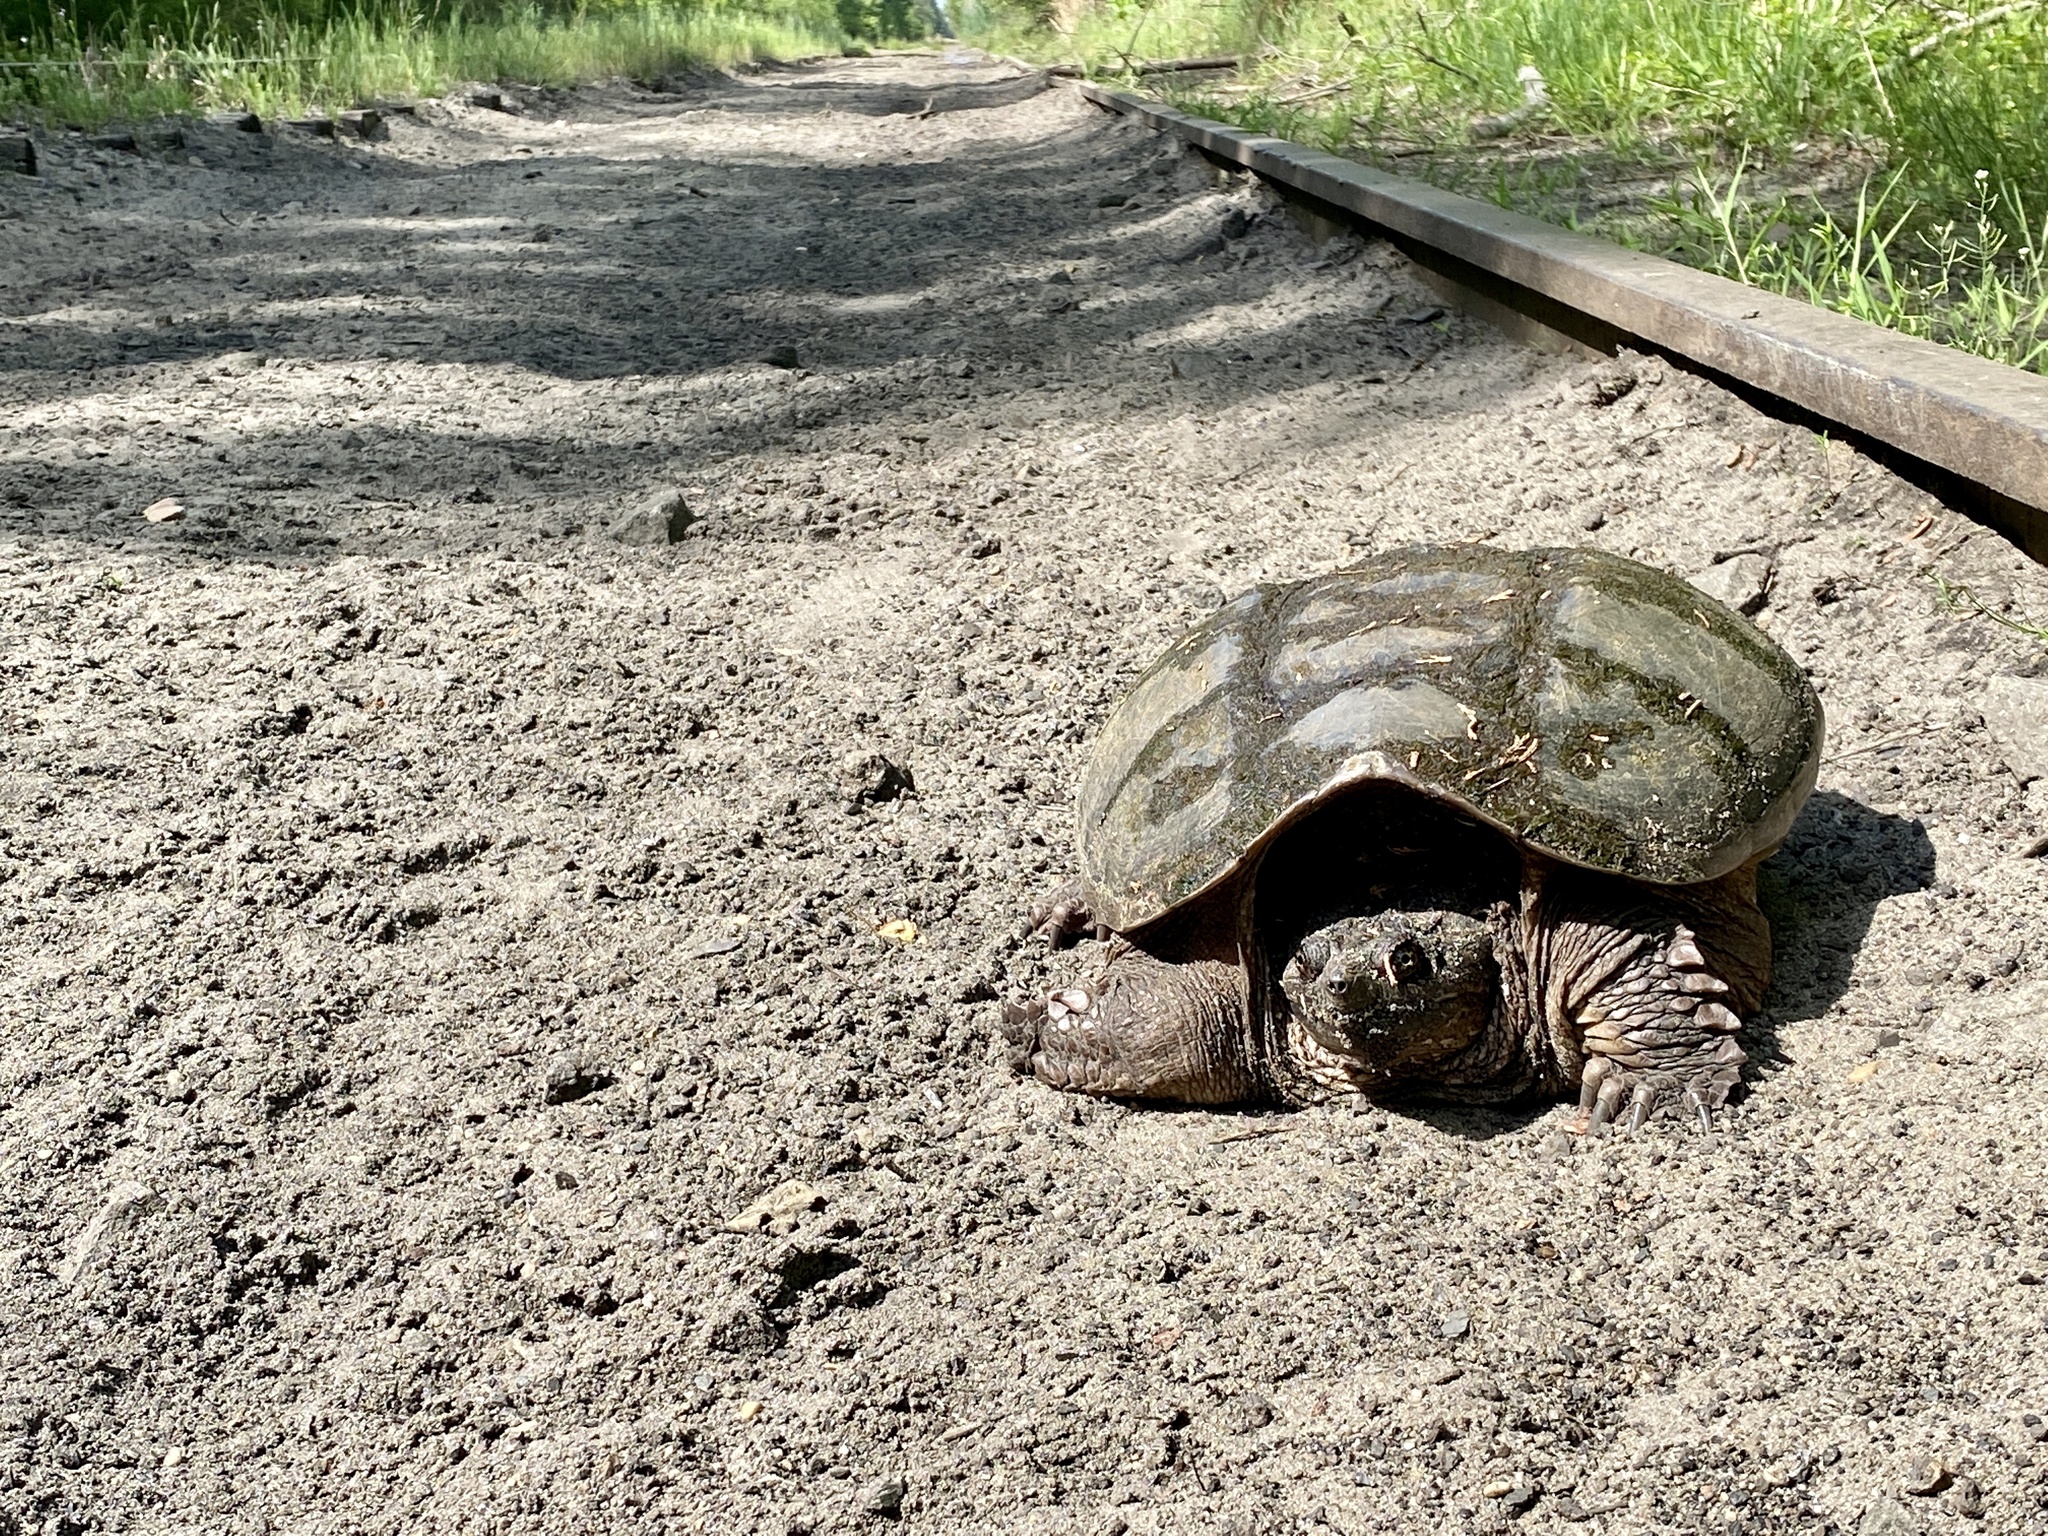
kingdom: Animalia
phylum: Chordata
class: Testudines
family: Chelydridae
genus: Chelydra
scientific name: Chelydra serpentina
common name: Common snapping turtle
